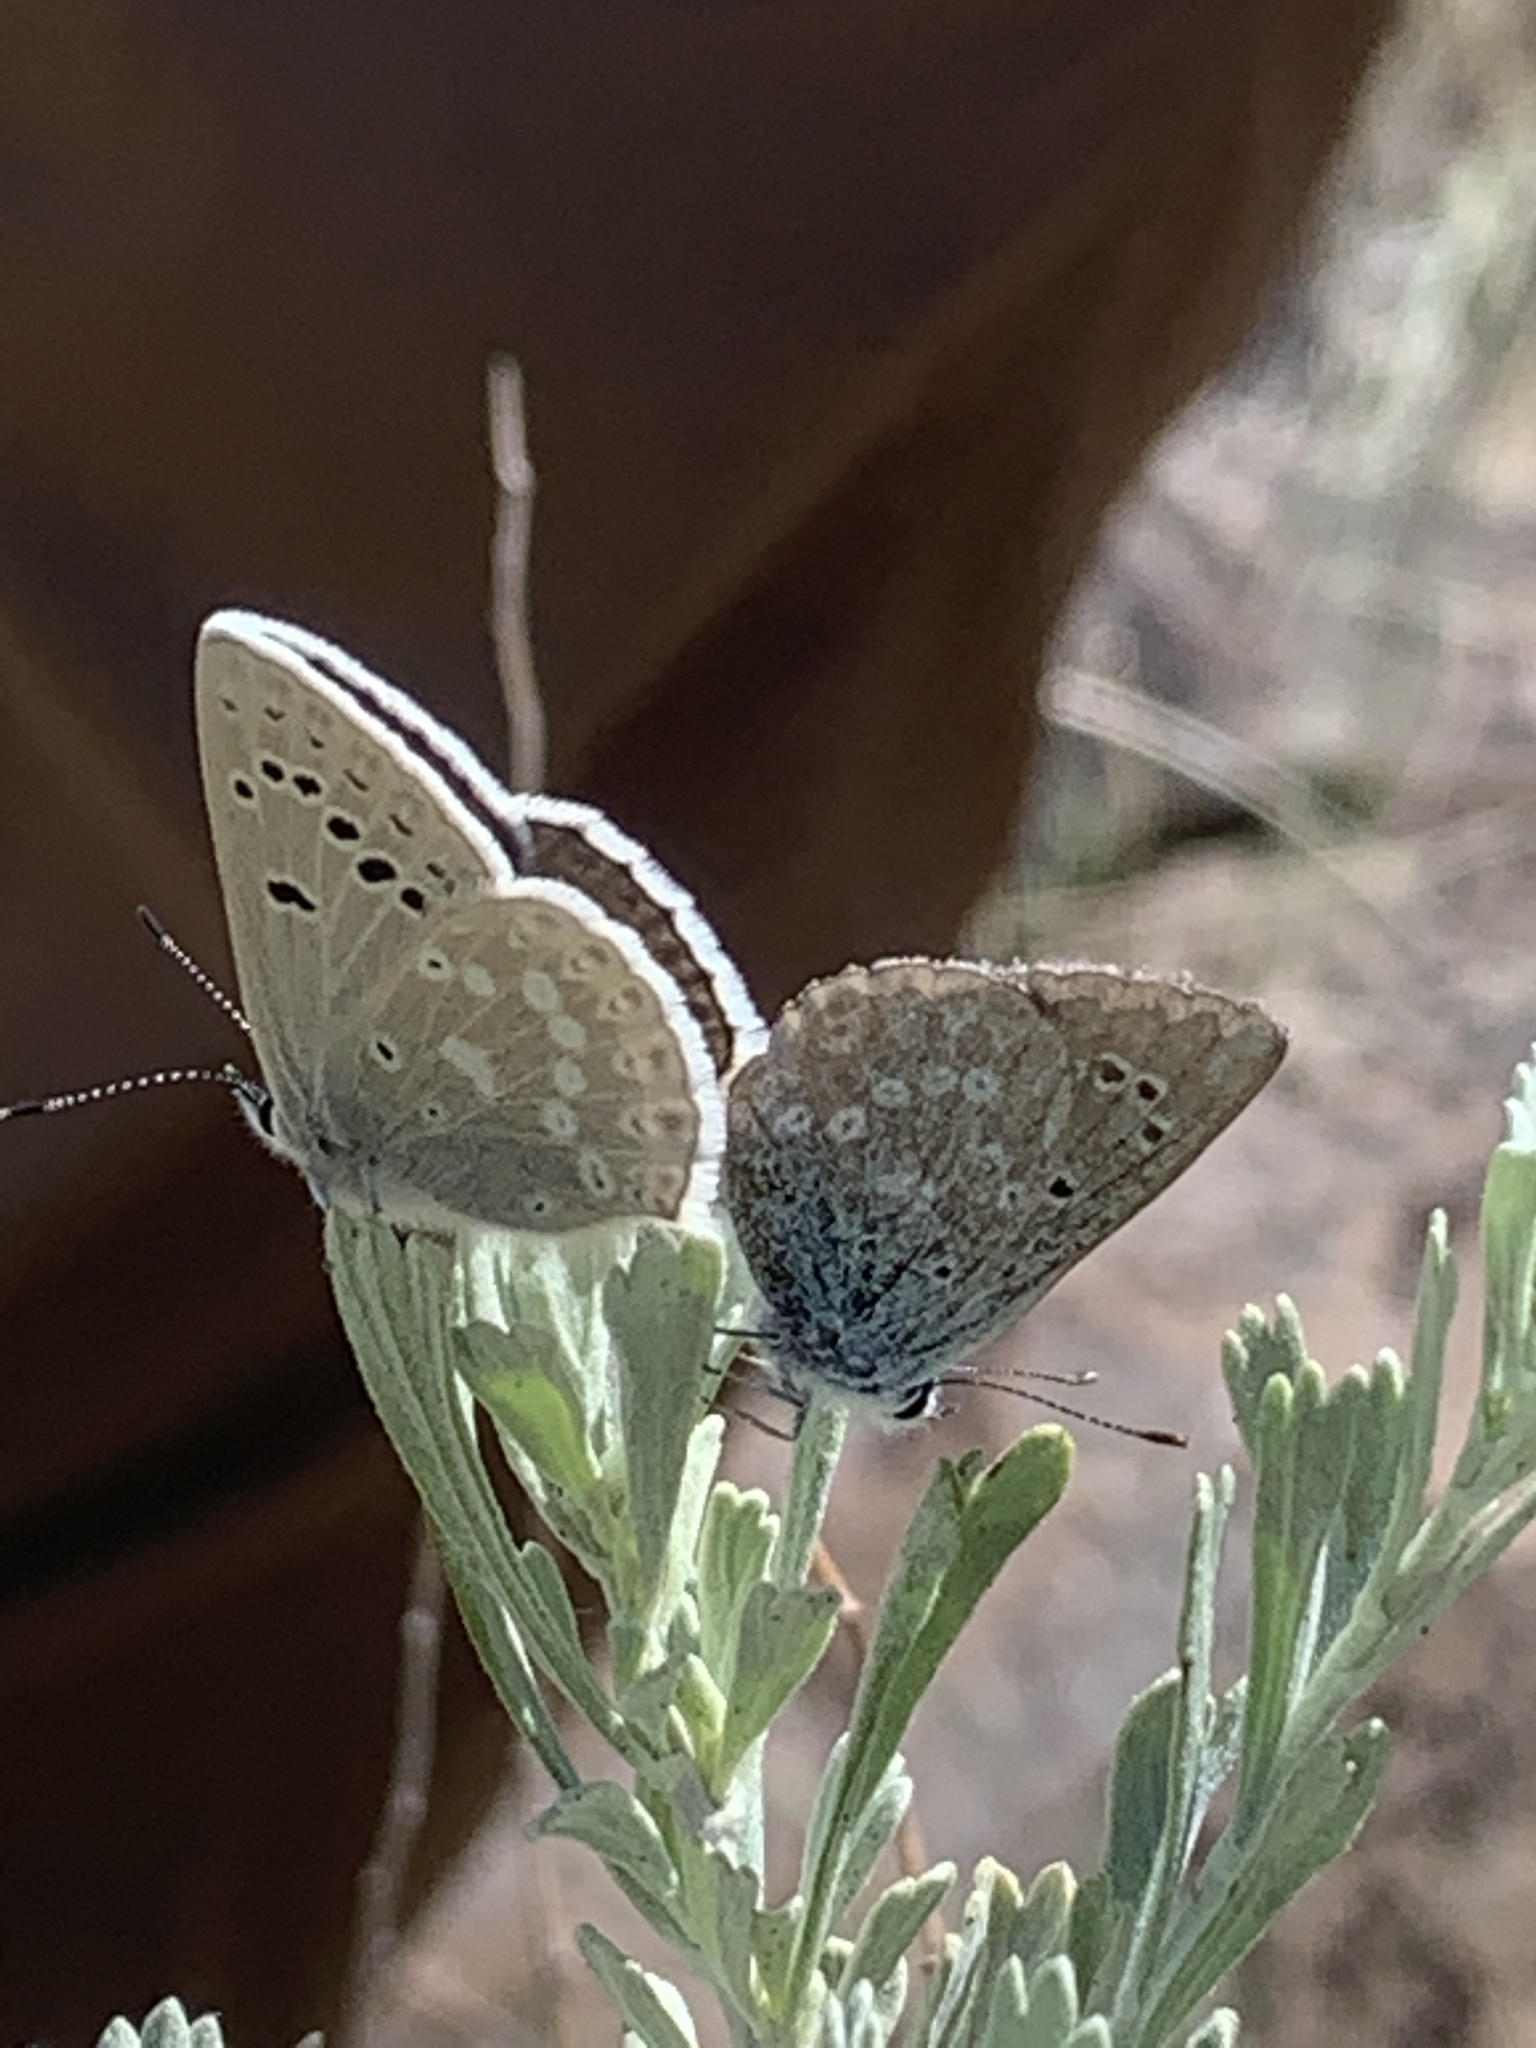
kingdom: Animalia
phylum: Arthropoda
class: Insecta
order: Lepidoptera
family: Lycaenidae
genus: Icaricia
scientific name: Icaricia icarioides
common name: Boisduval's blue
